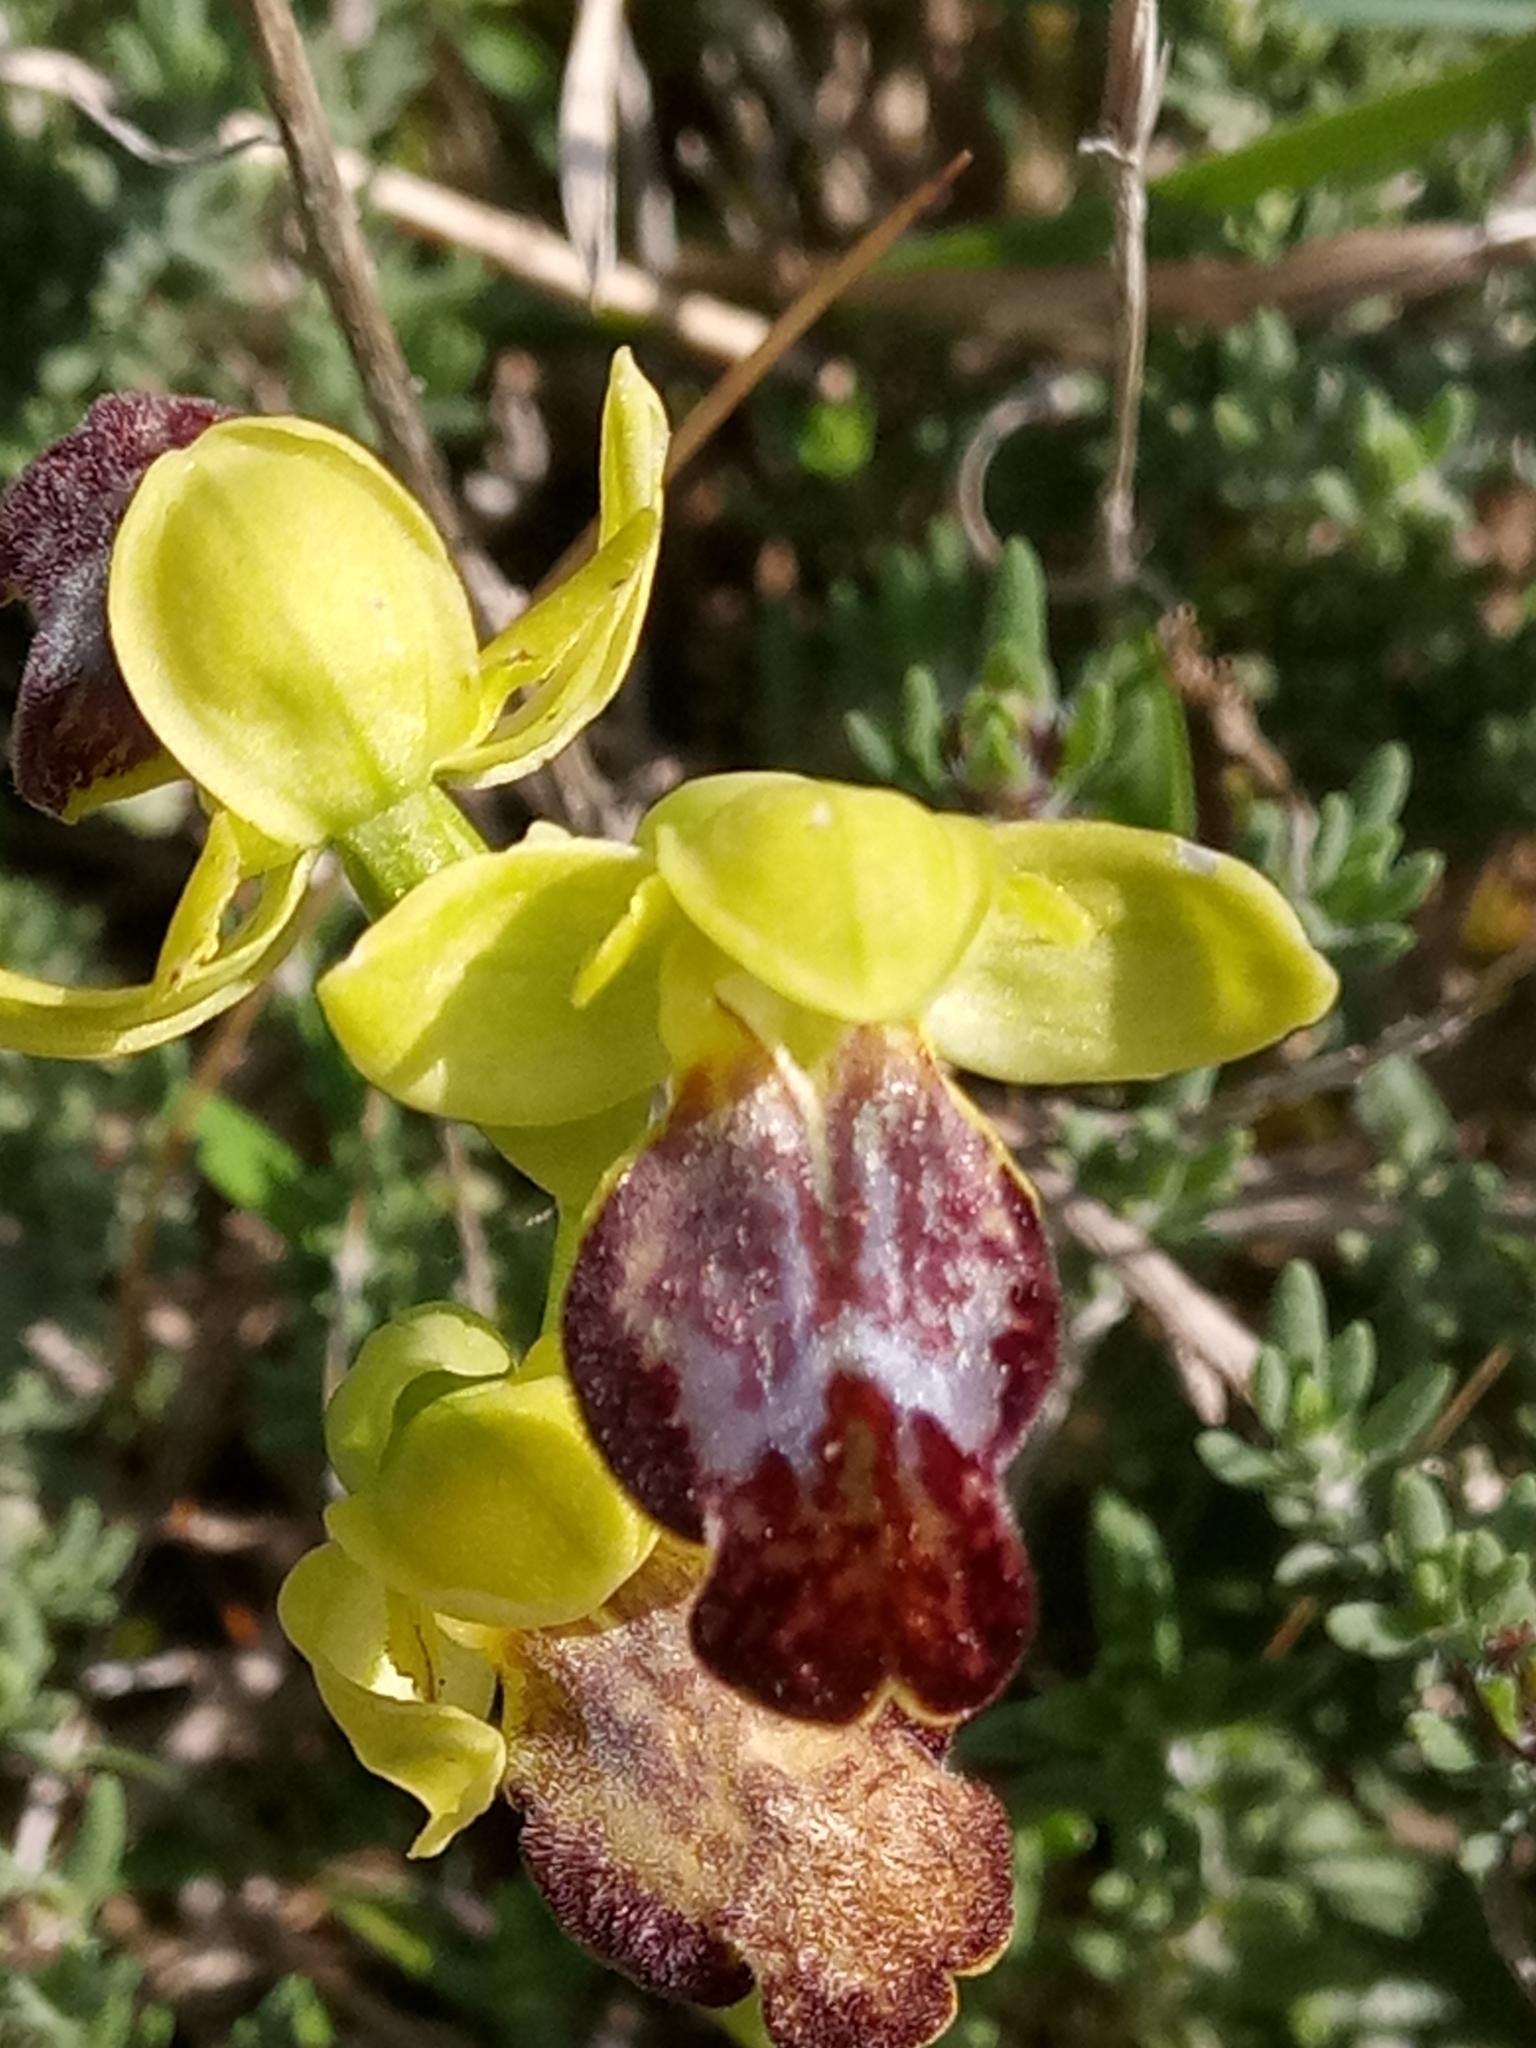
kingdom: Plantae
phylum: Tracheophyta
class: Liliopsida
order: Asparagales
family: Orchidaceae
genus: Ophrys
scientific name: Ophrys fusca
